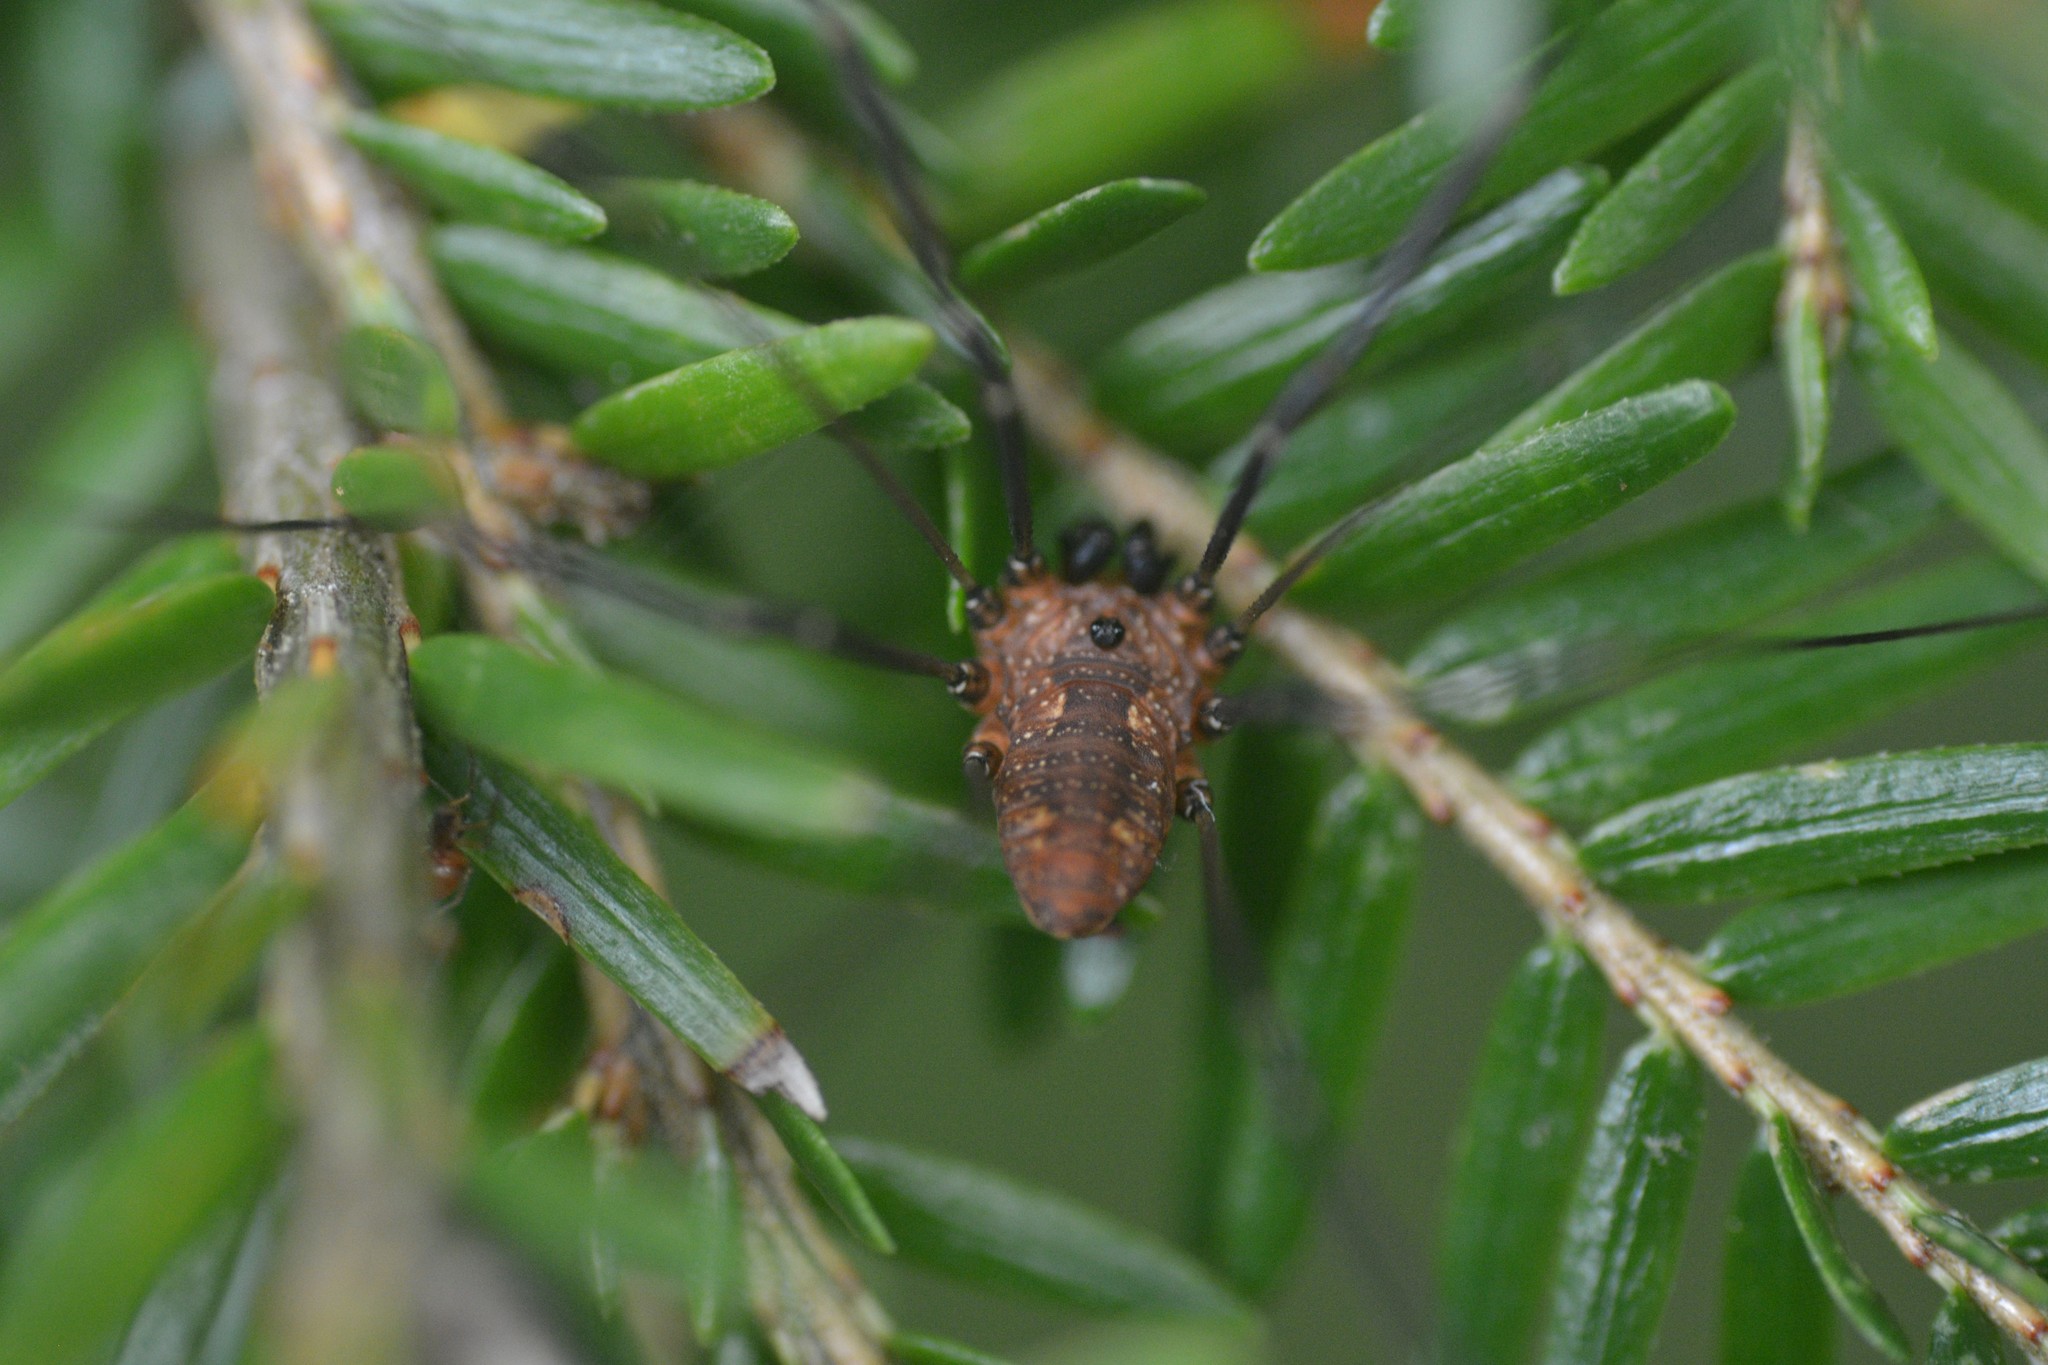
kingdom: Animalia
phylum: Arthropoda
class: Arachnida
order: Opiliones
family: Sclerosomatidae
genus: Leiobunum
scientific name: Leiobunum calcar
